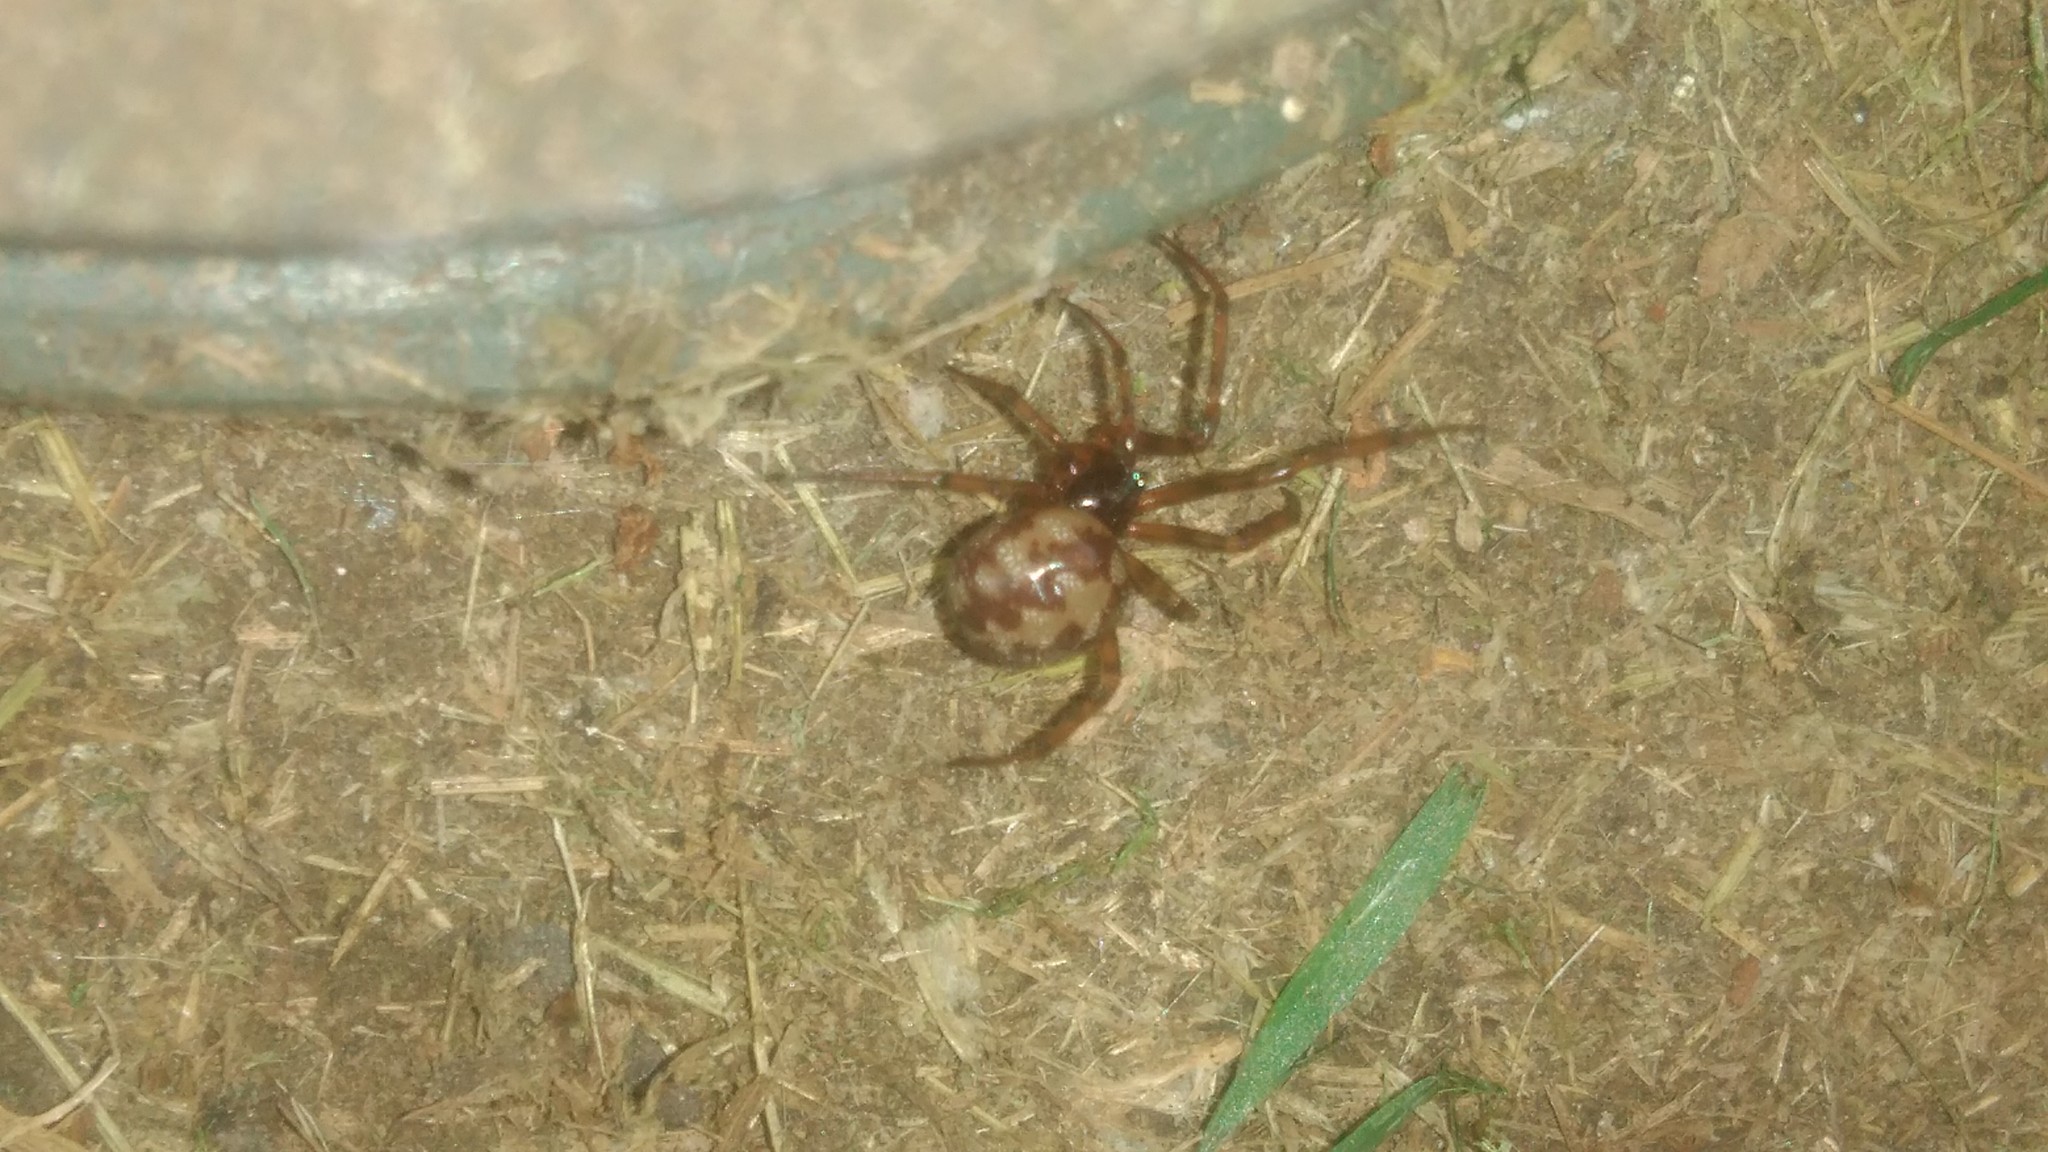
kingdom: Animalia
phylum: Arthropoda
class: Arachnida
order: Araneae
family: Theridiidae
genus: Steatoda
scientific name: Steatoda triangulosa
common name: Triangulate bud spider
